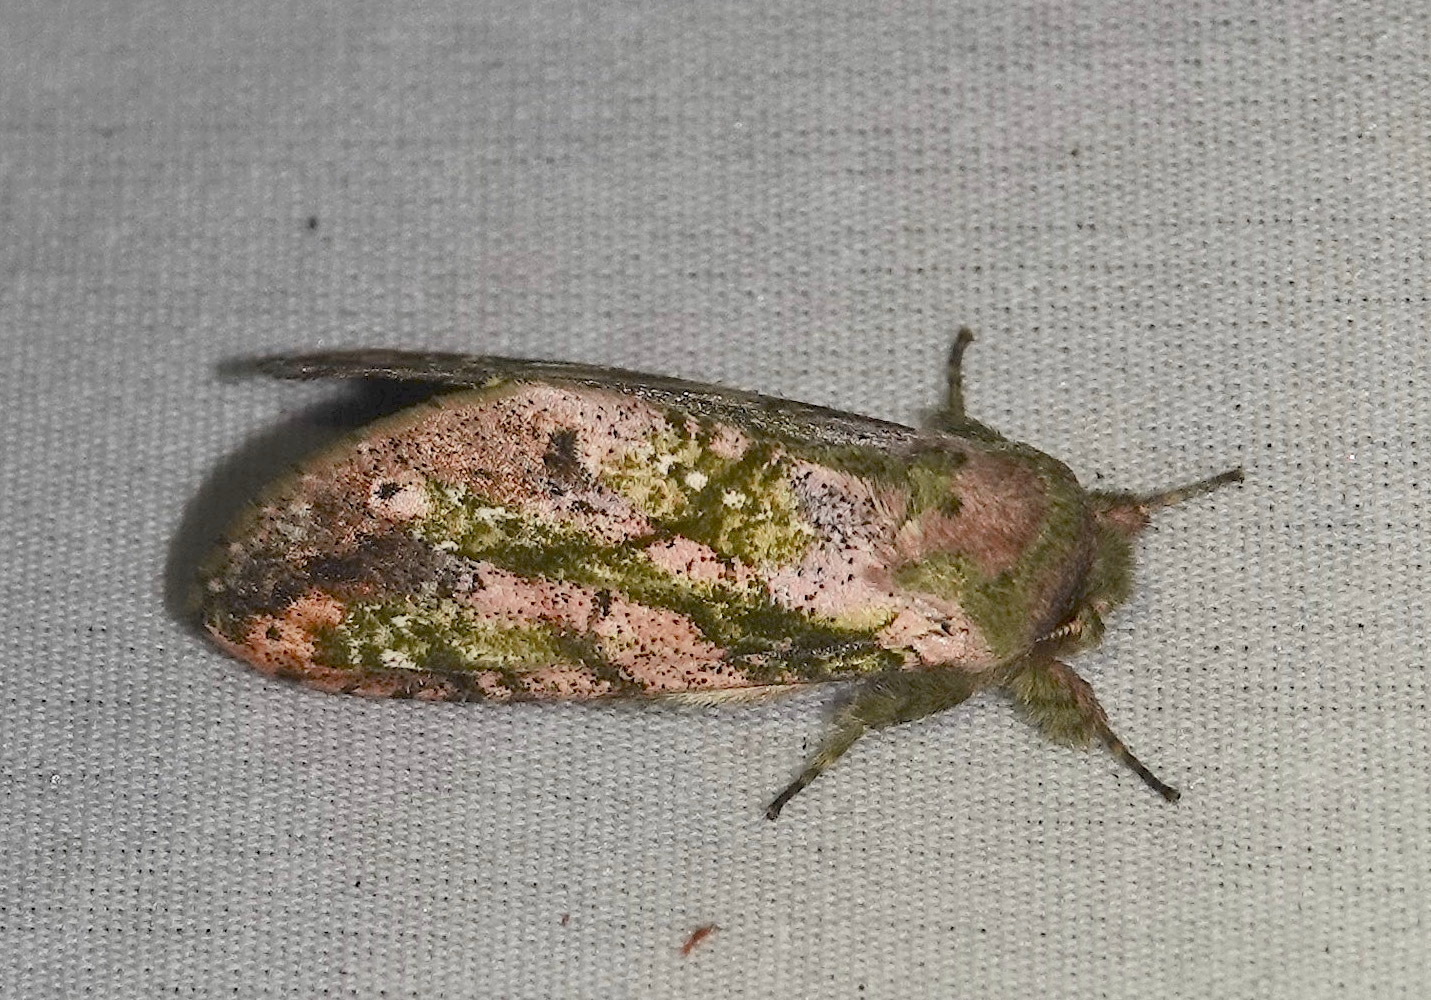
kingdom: Animalia
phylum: Arthropoda
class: Insecta
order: Lepidoptera
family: Notodontidae
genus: Psilacron
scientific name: Psilacron gordiana
